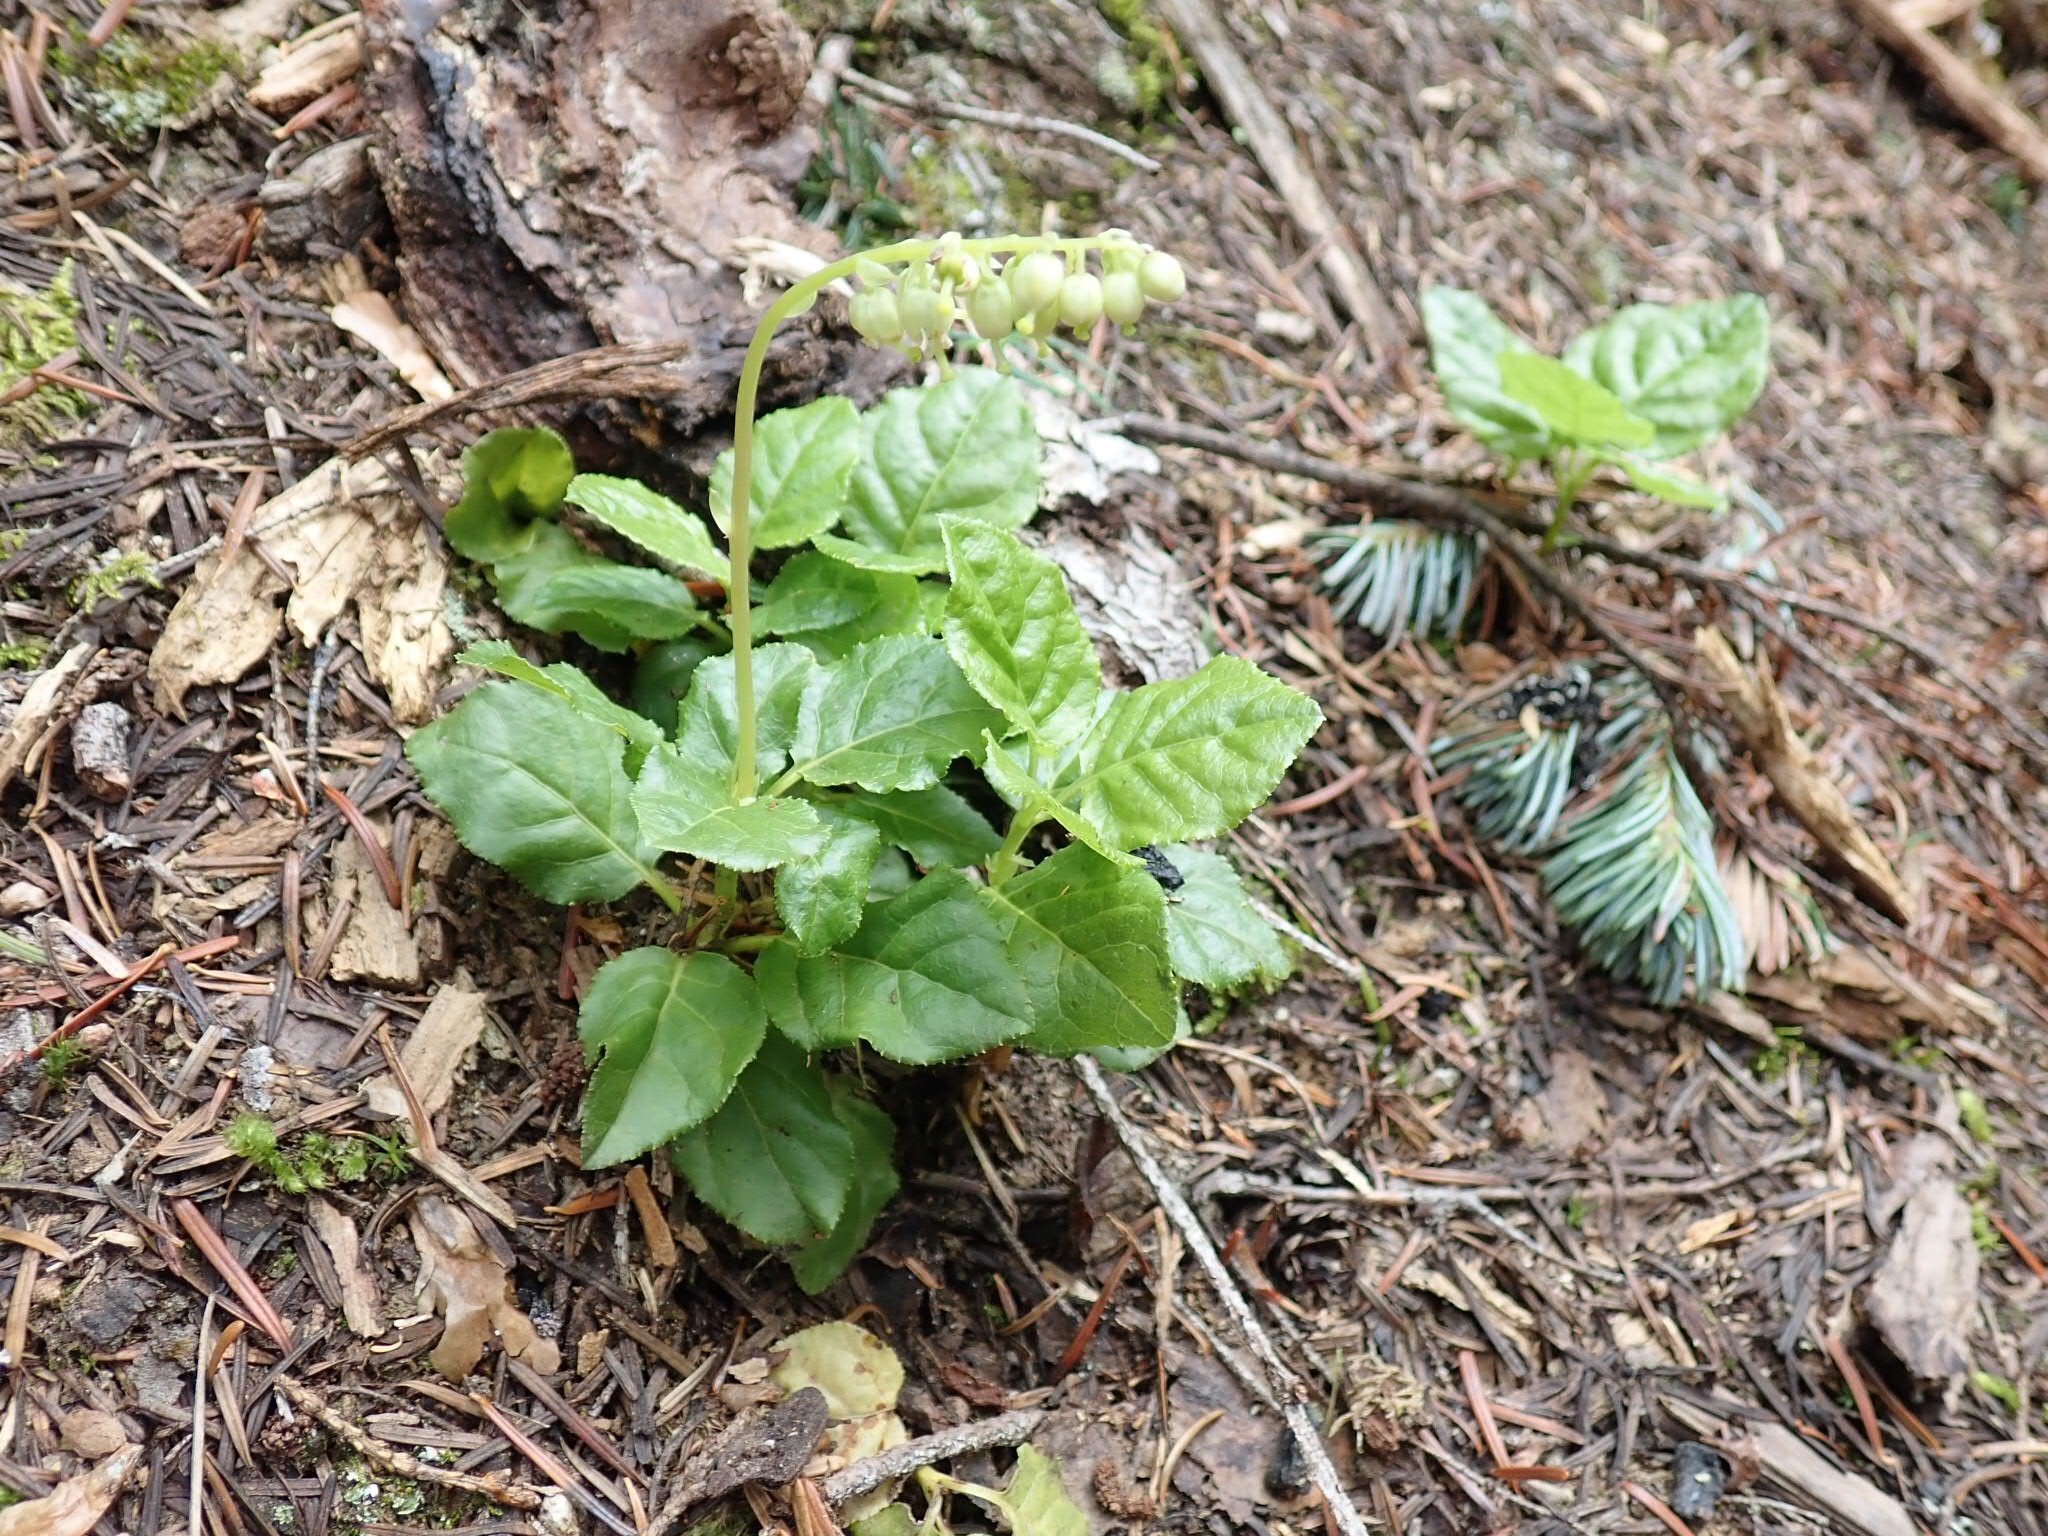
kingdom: Plantae
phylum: Tracheophyta
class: Magnoliopsida
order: Ericales
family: Ericaceae
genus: Orthilia
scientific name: Orthilia secunda
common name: One-sided orthilia
